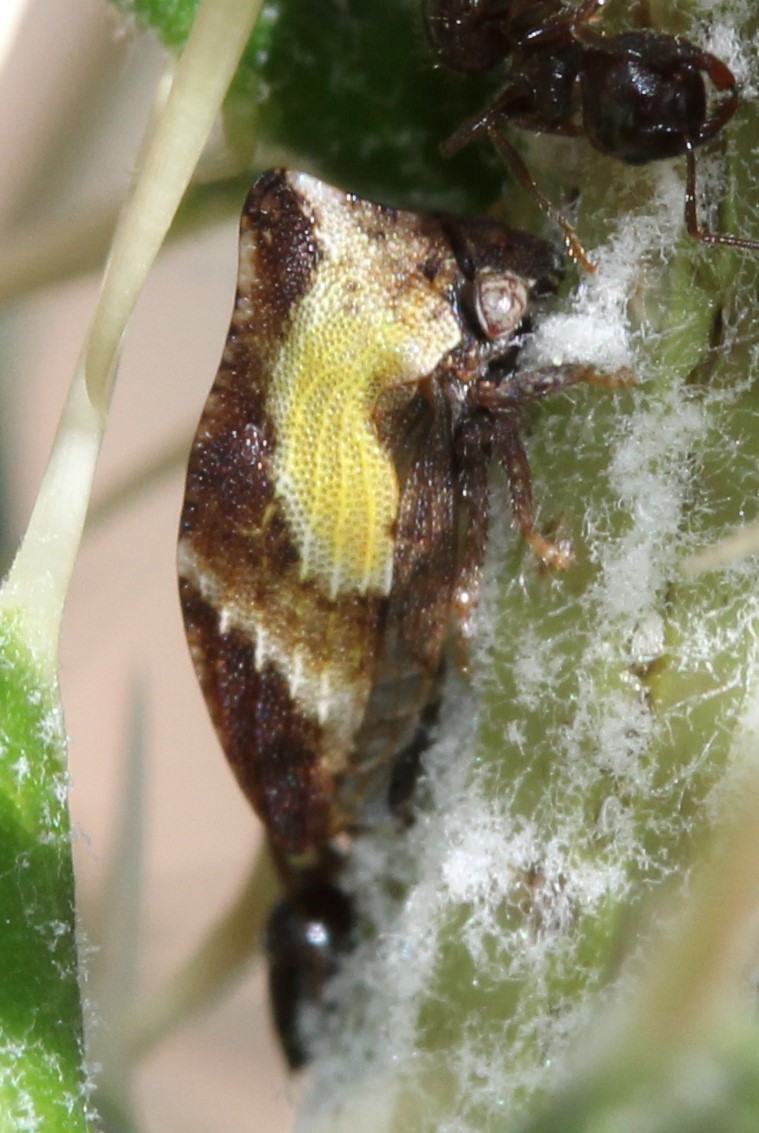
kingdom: Animalia
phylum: Arthropoda
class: Insecta
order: Hemiptera
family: Membracidae
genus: Publilia
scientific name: Publilia porrecta
